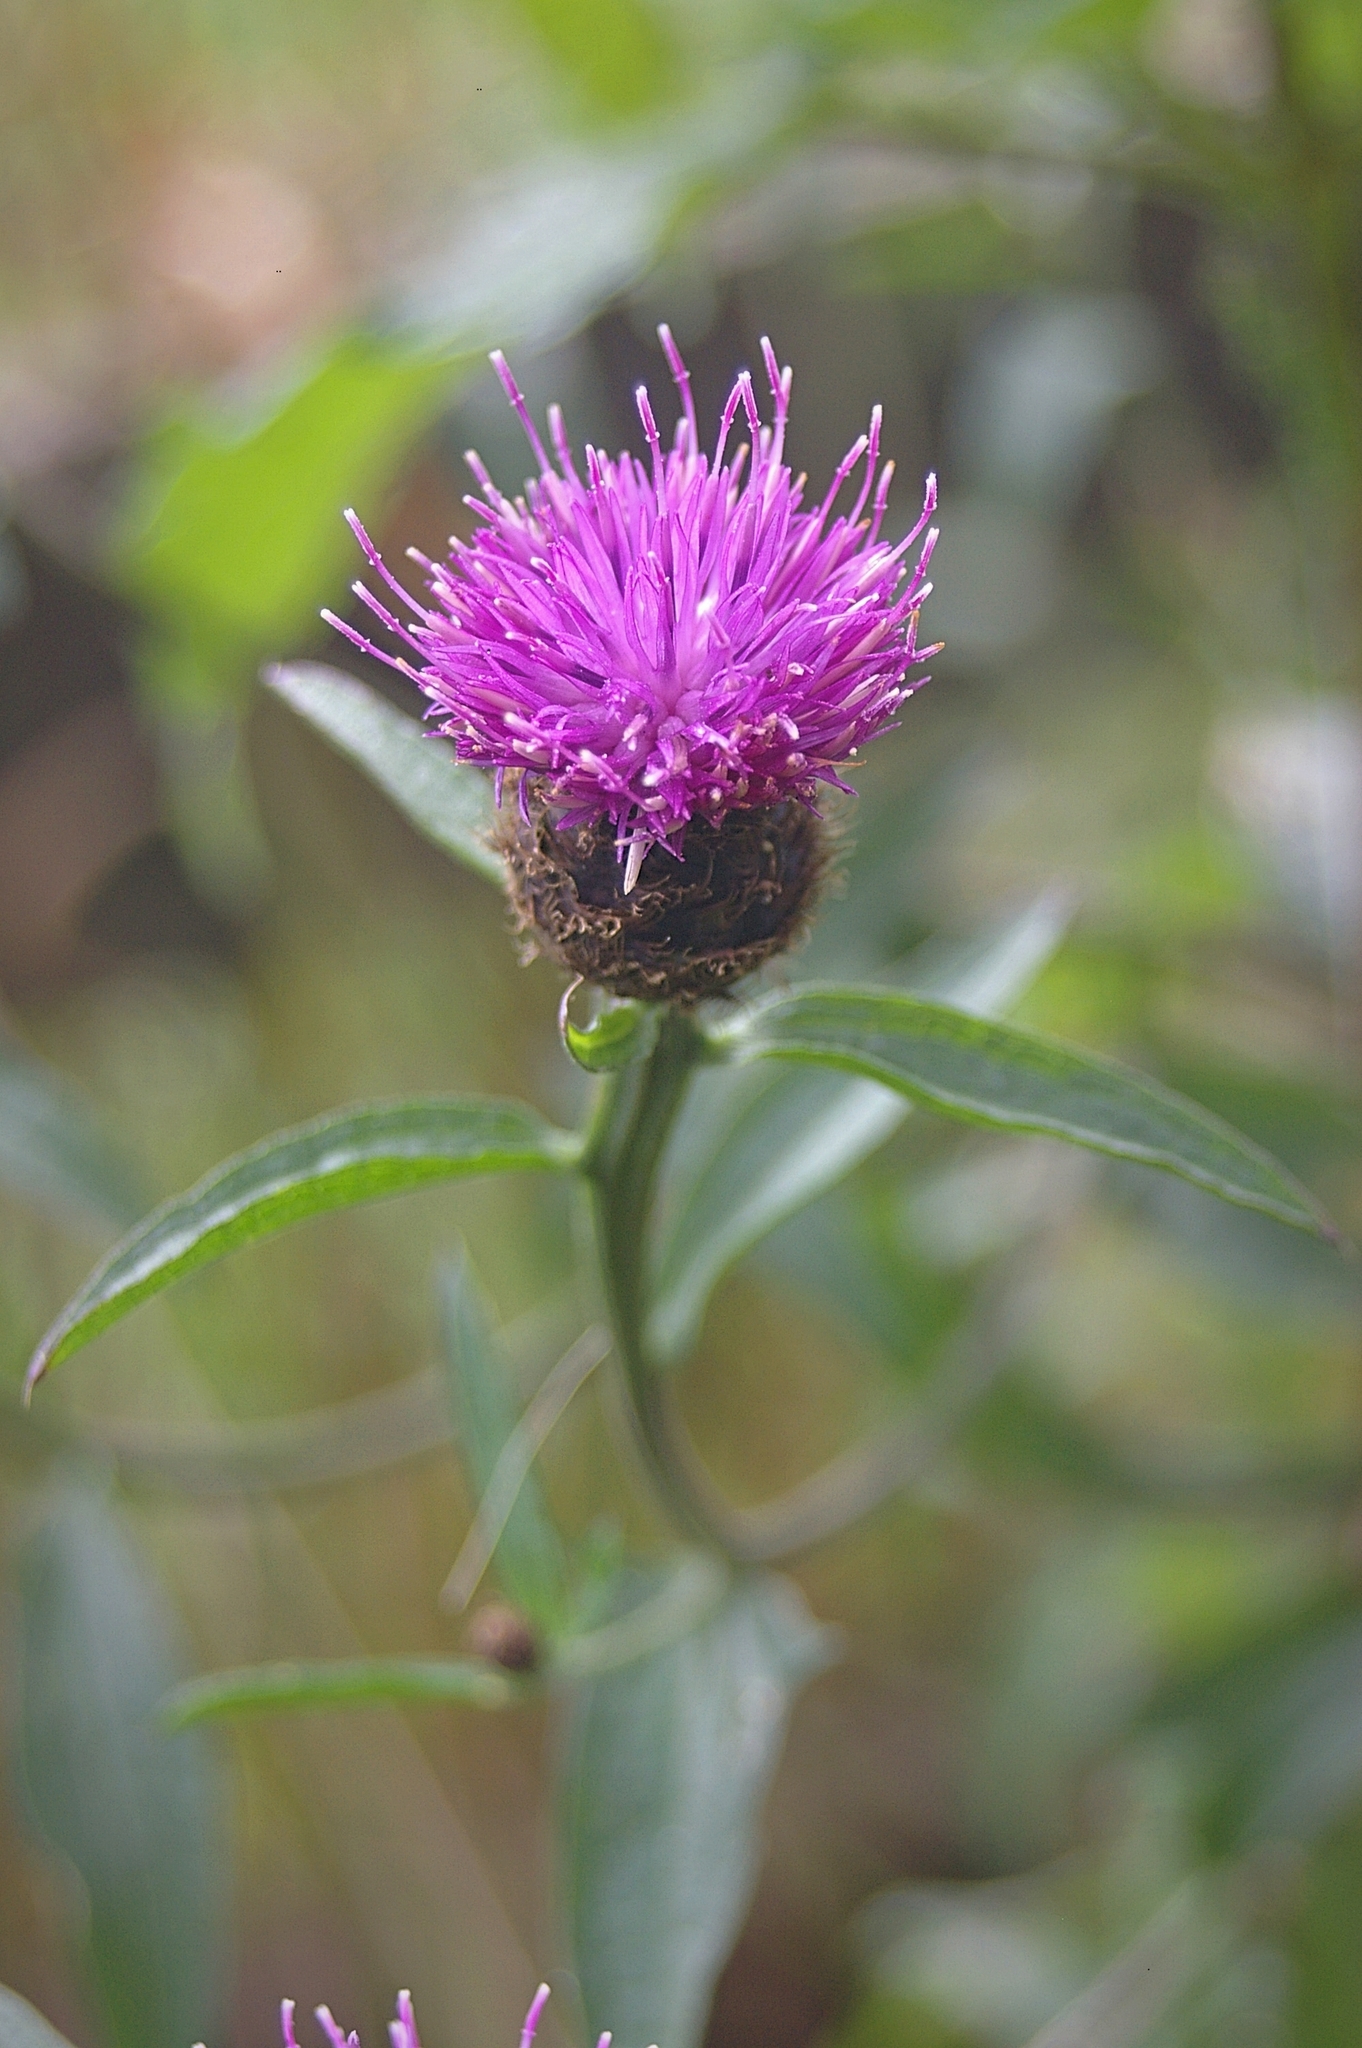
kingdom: Plantae
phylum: Tracheophyta
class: Magnoliopsida
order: Asterales
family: Asteraceae
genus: Centaurea
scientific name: Centaurea nigra
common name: Lesser knapweed
